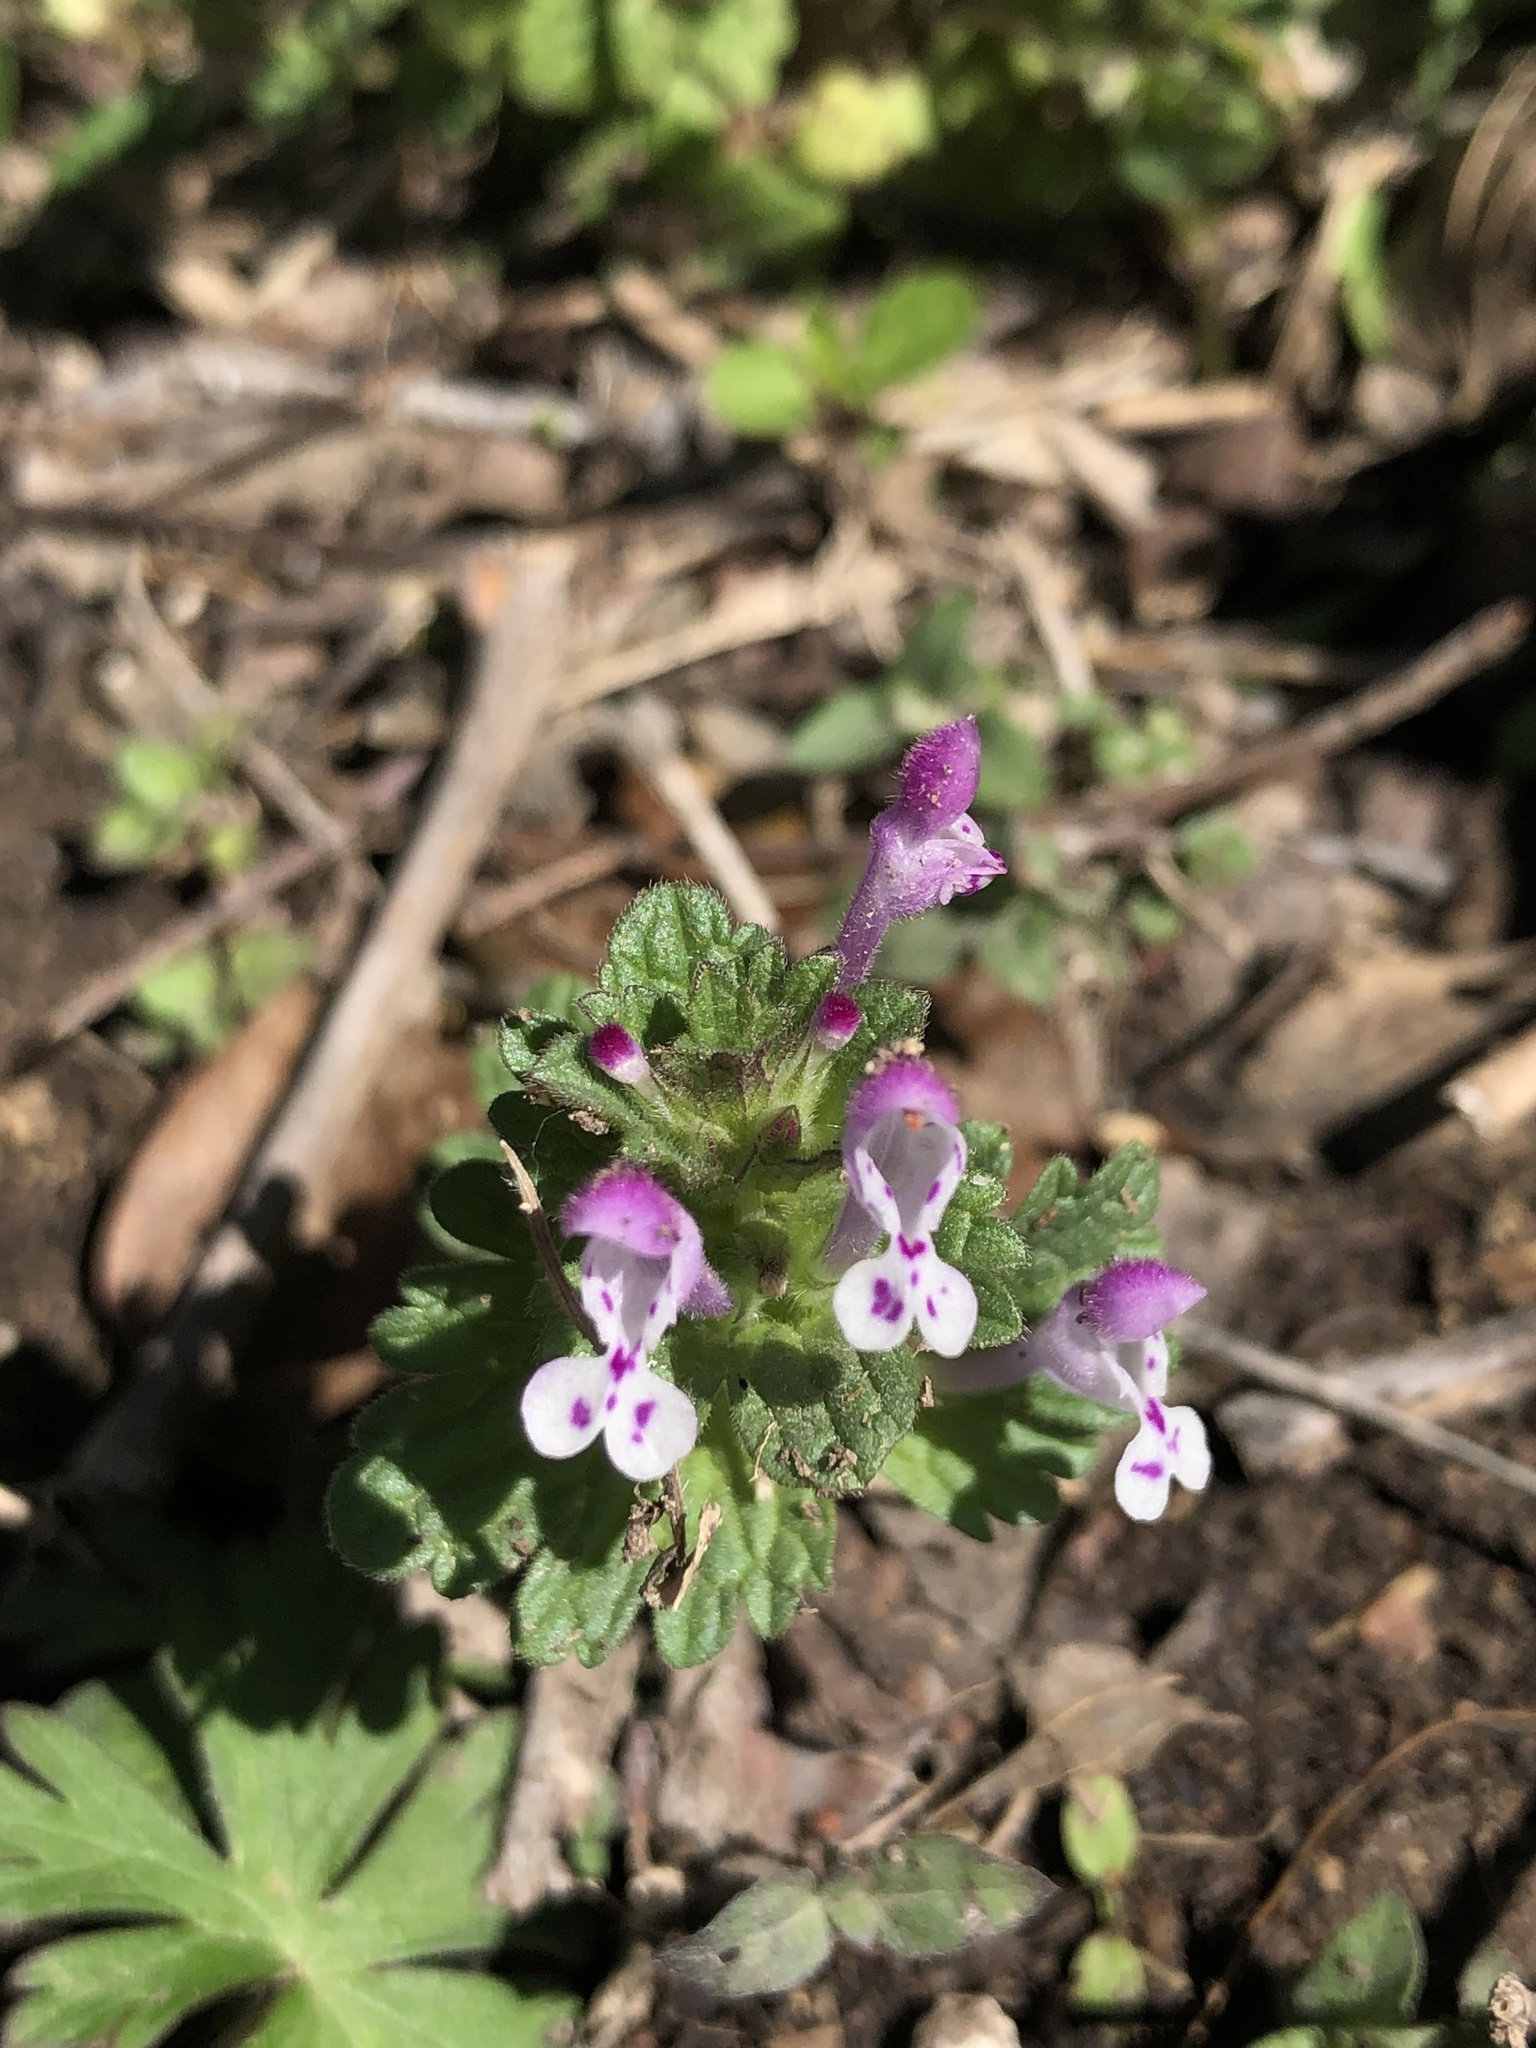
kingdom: Plantae
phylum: Tracheophyta
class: Magnoliopsida
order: Lamiales
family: Lamiaceae
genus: Lamium
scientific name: Lamium amplexicaule
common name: Henbit dead-nettle
